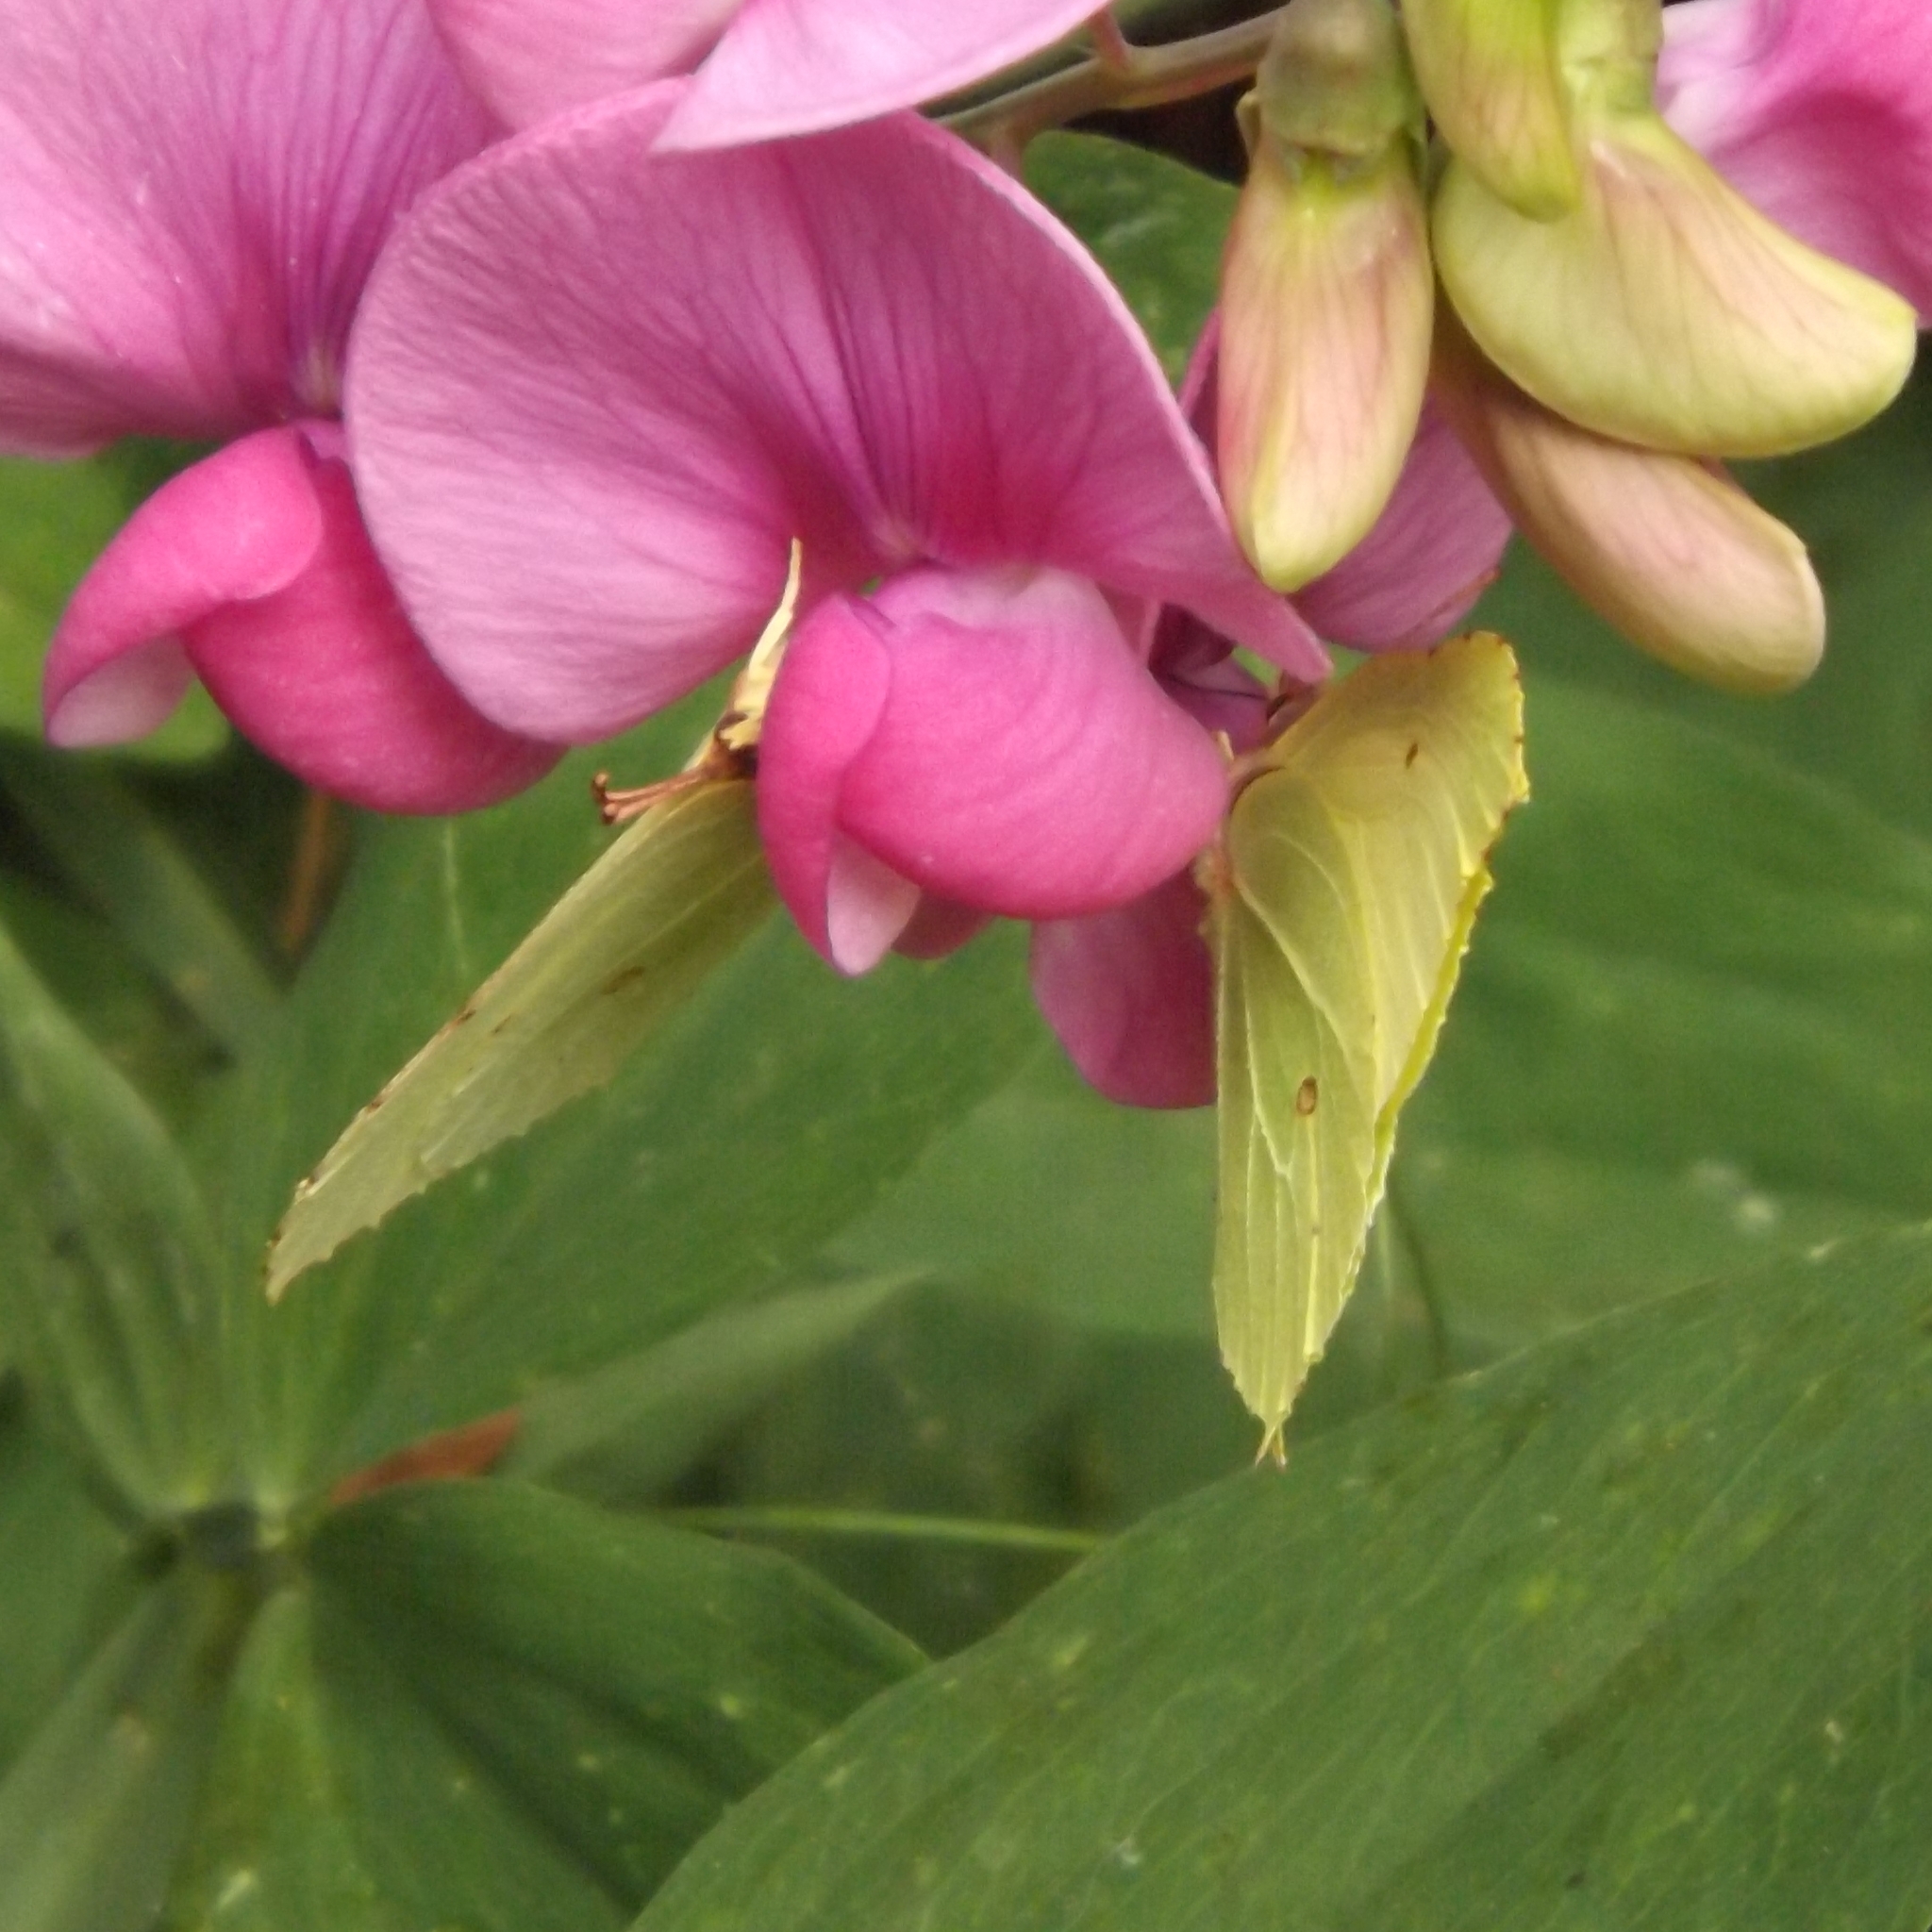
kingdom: Animalia
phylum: Arthropoda
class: Insecta
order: Lepidoptera
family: Pieridae
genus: Gonepteryx
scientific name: Gonepteryx rhamni
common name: Brimstone
